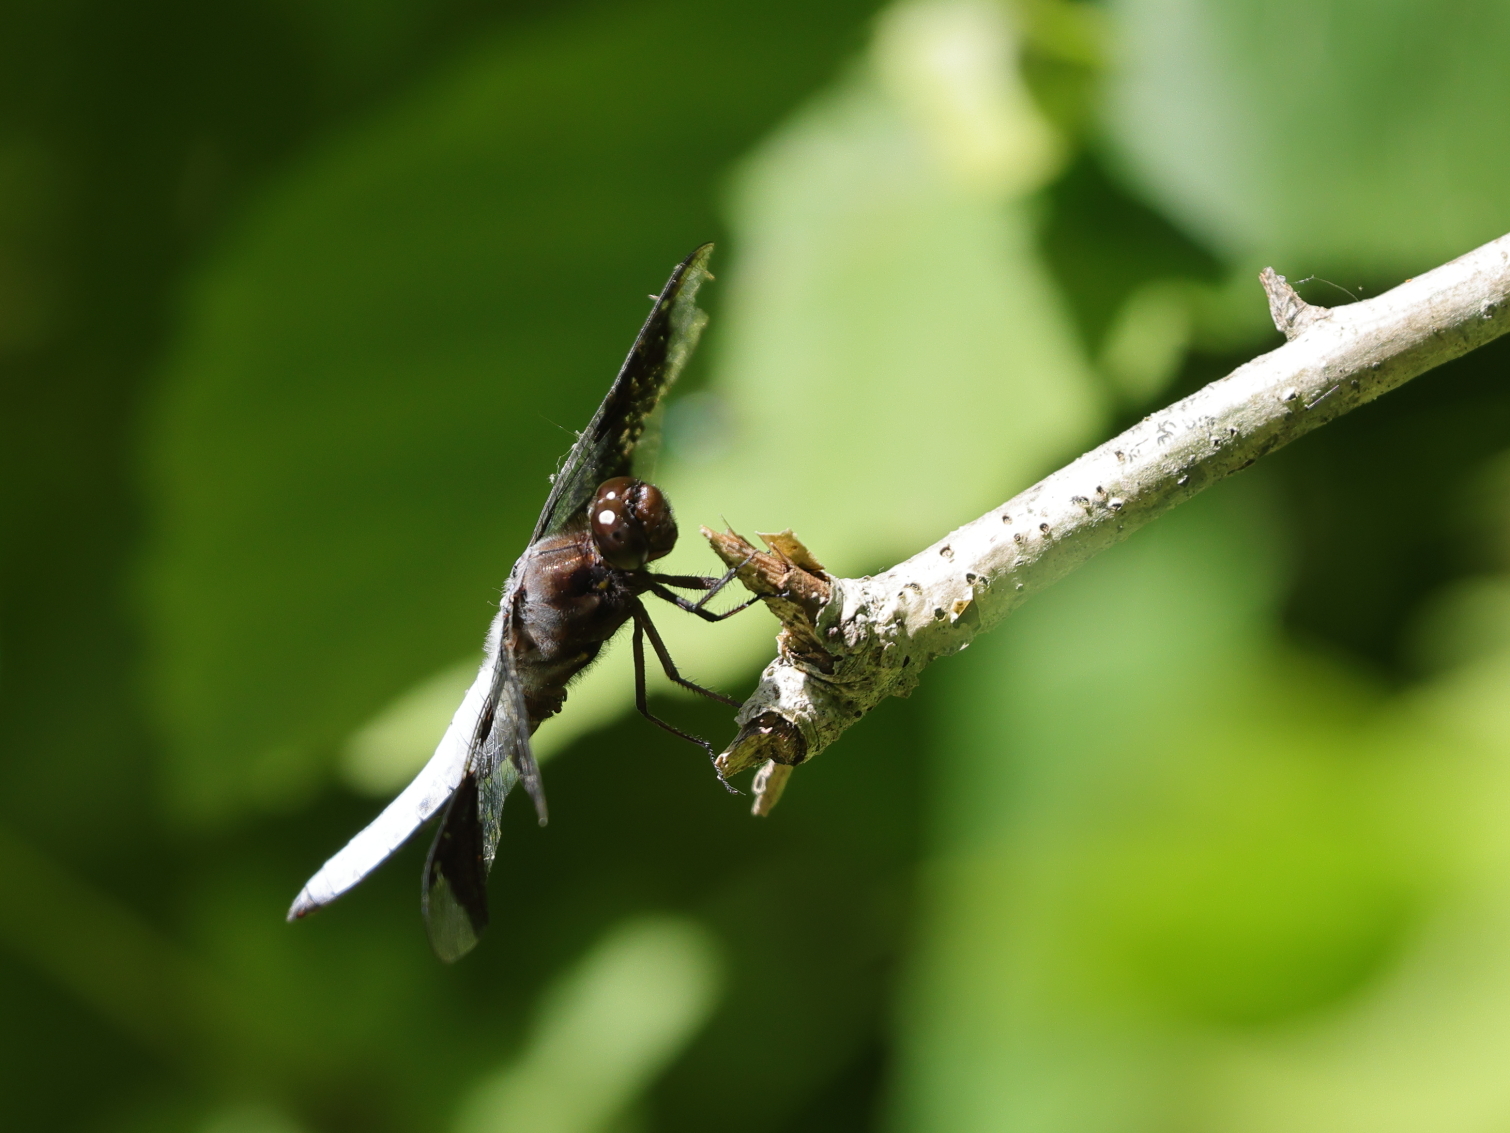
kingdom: Animalia
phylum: Arthropoda
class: Insecta
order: Odonata
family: Libellulidae
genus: Plathemis
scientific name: Plathemis lydia
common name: Common whitetail
